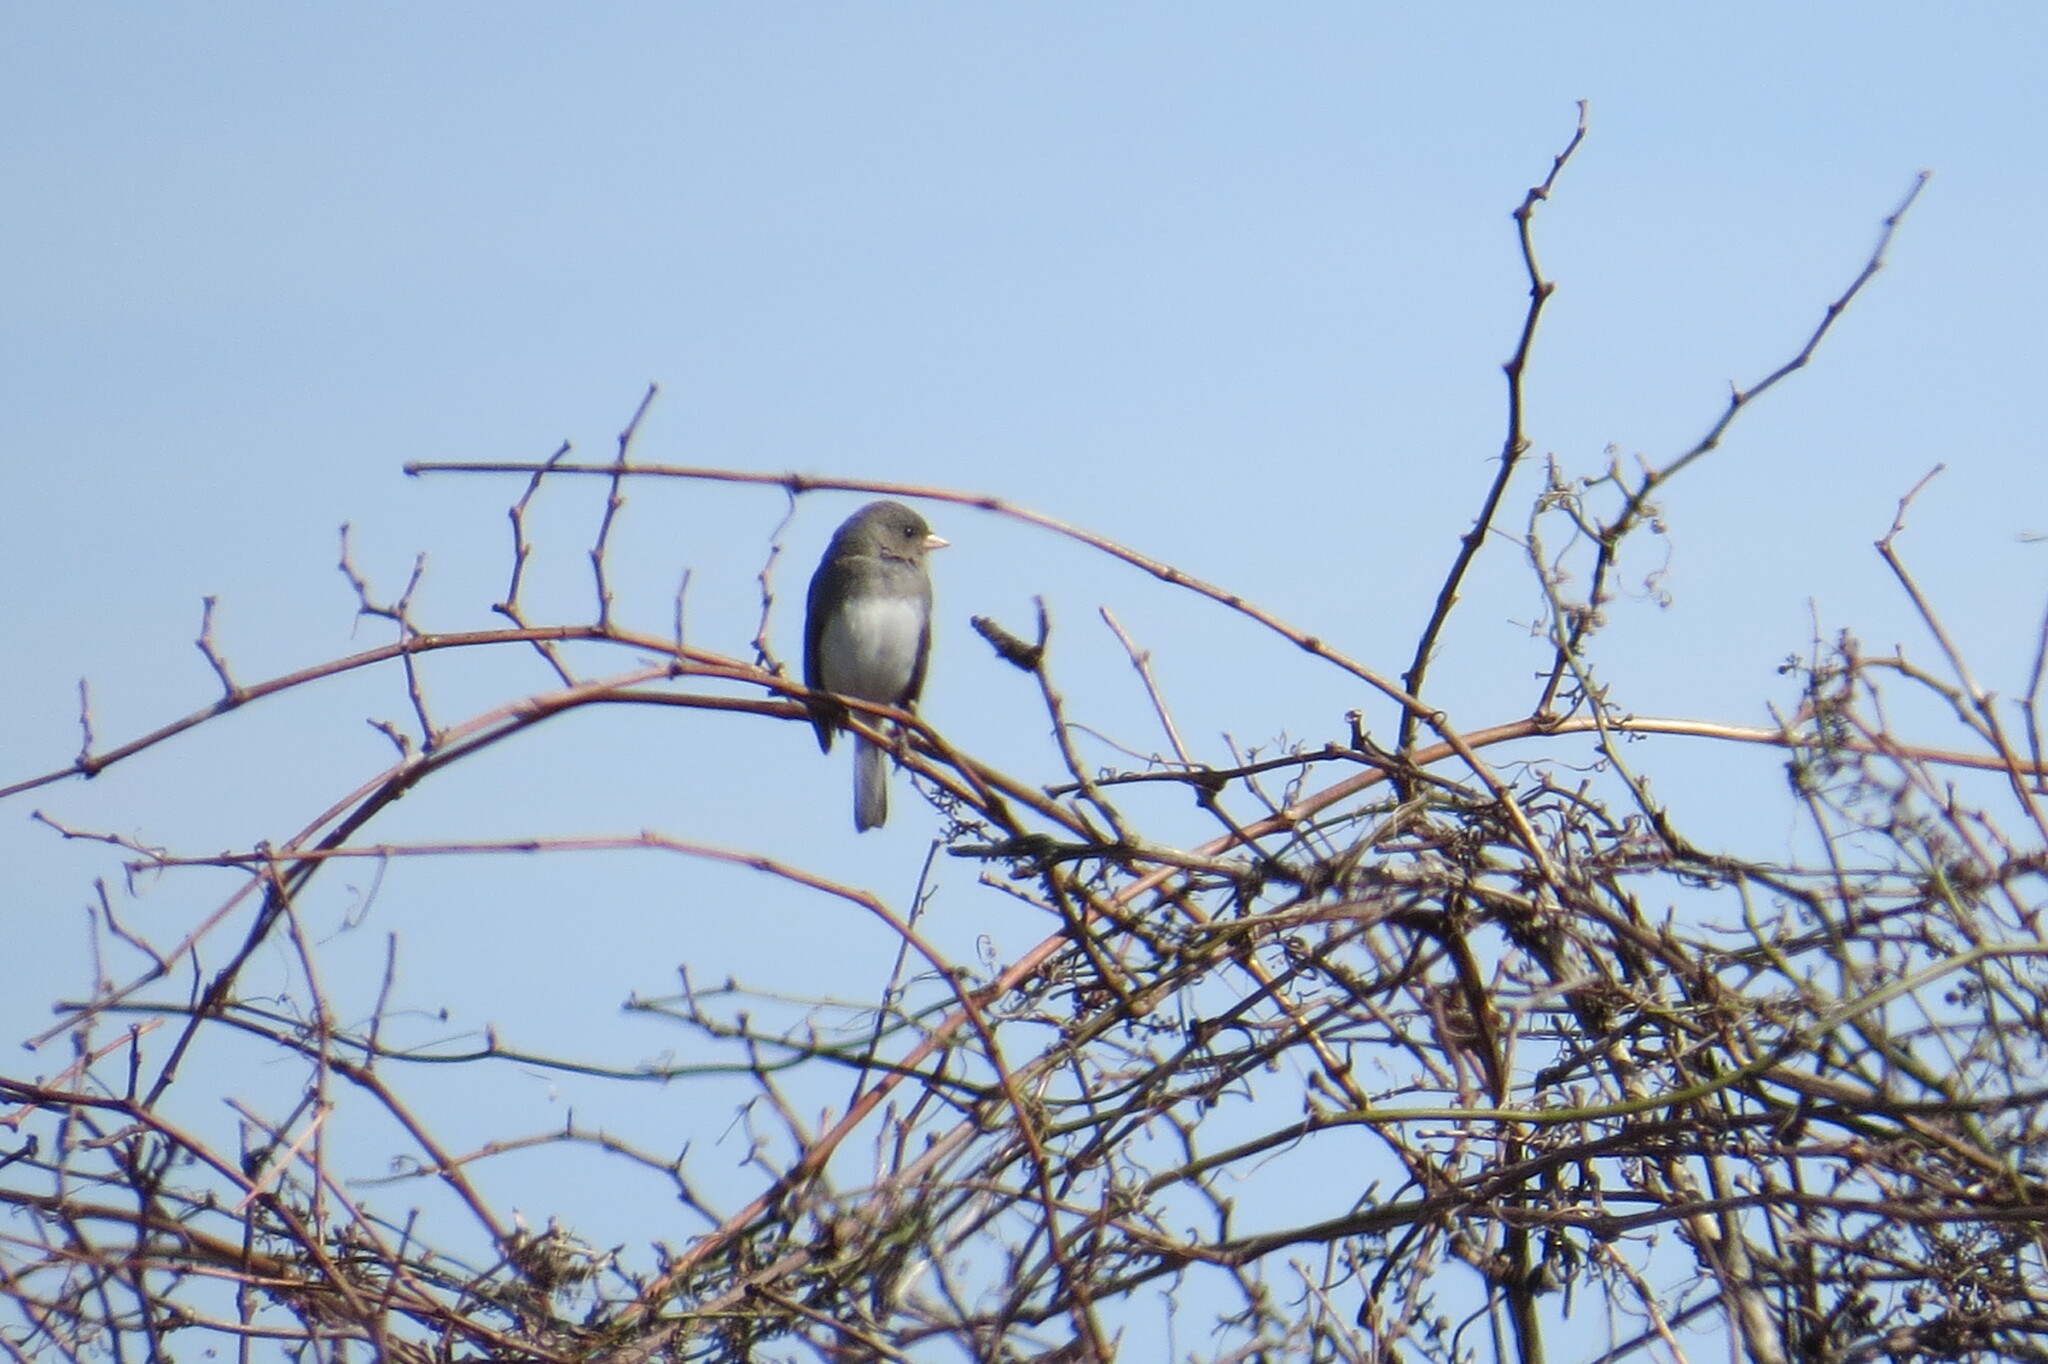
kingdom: Animalia
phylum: Chordata
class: Aves
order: Passeriformes
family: Passerellidae
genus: Junco
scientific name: Junco hyemalis
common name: Dark-eyed junco
